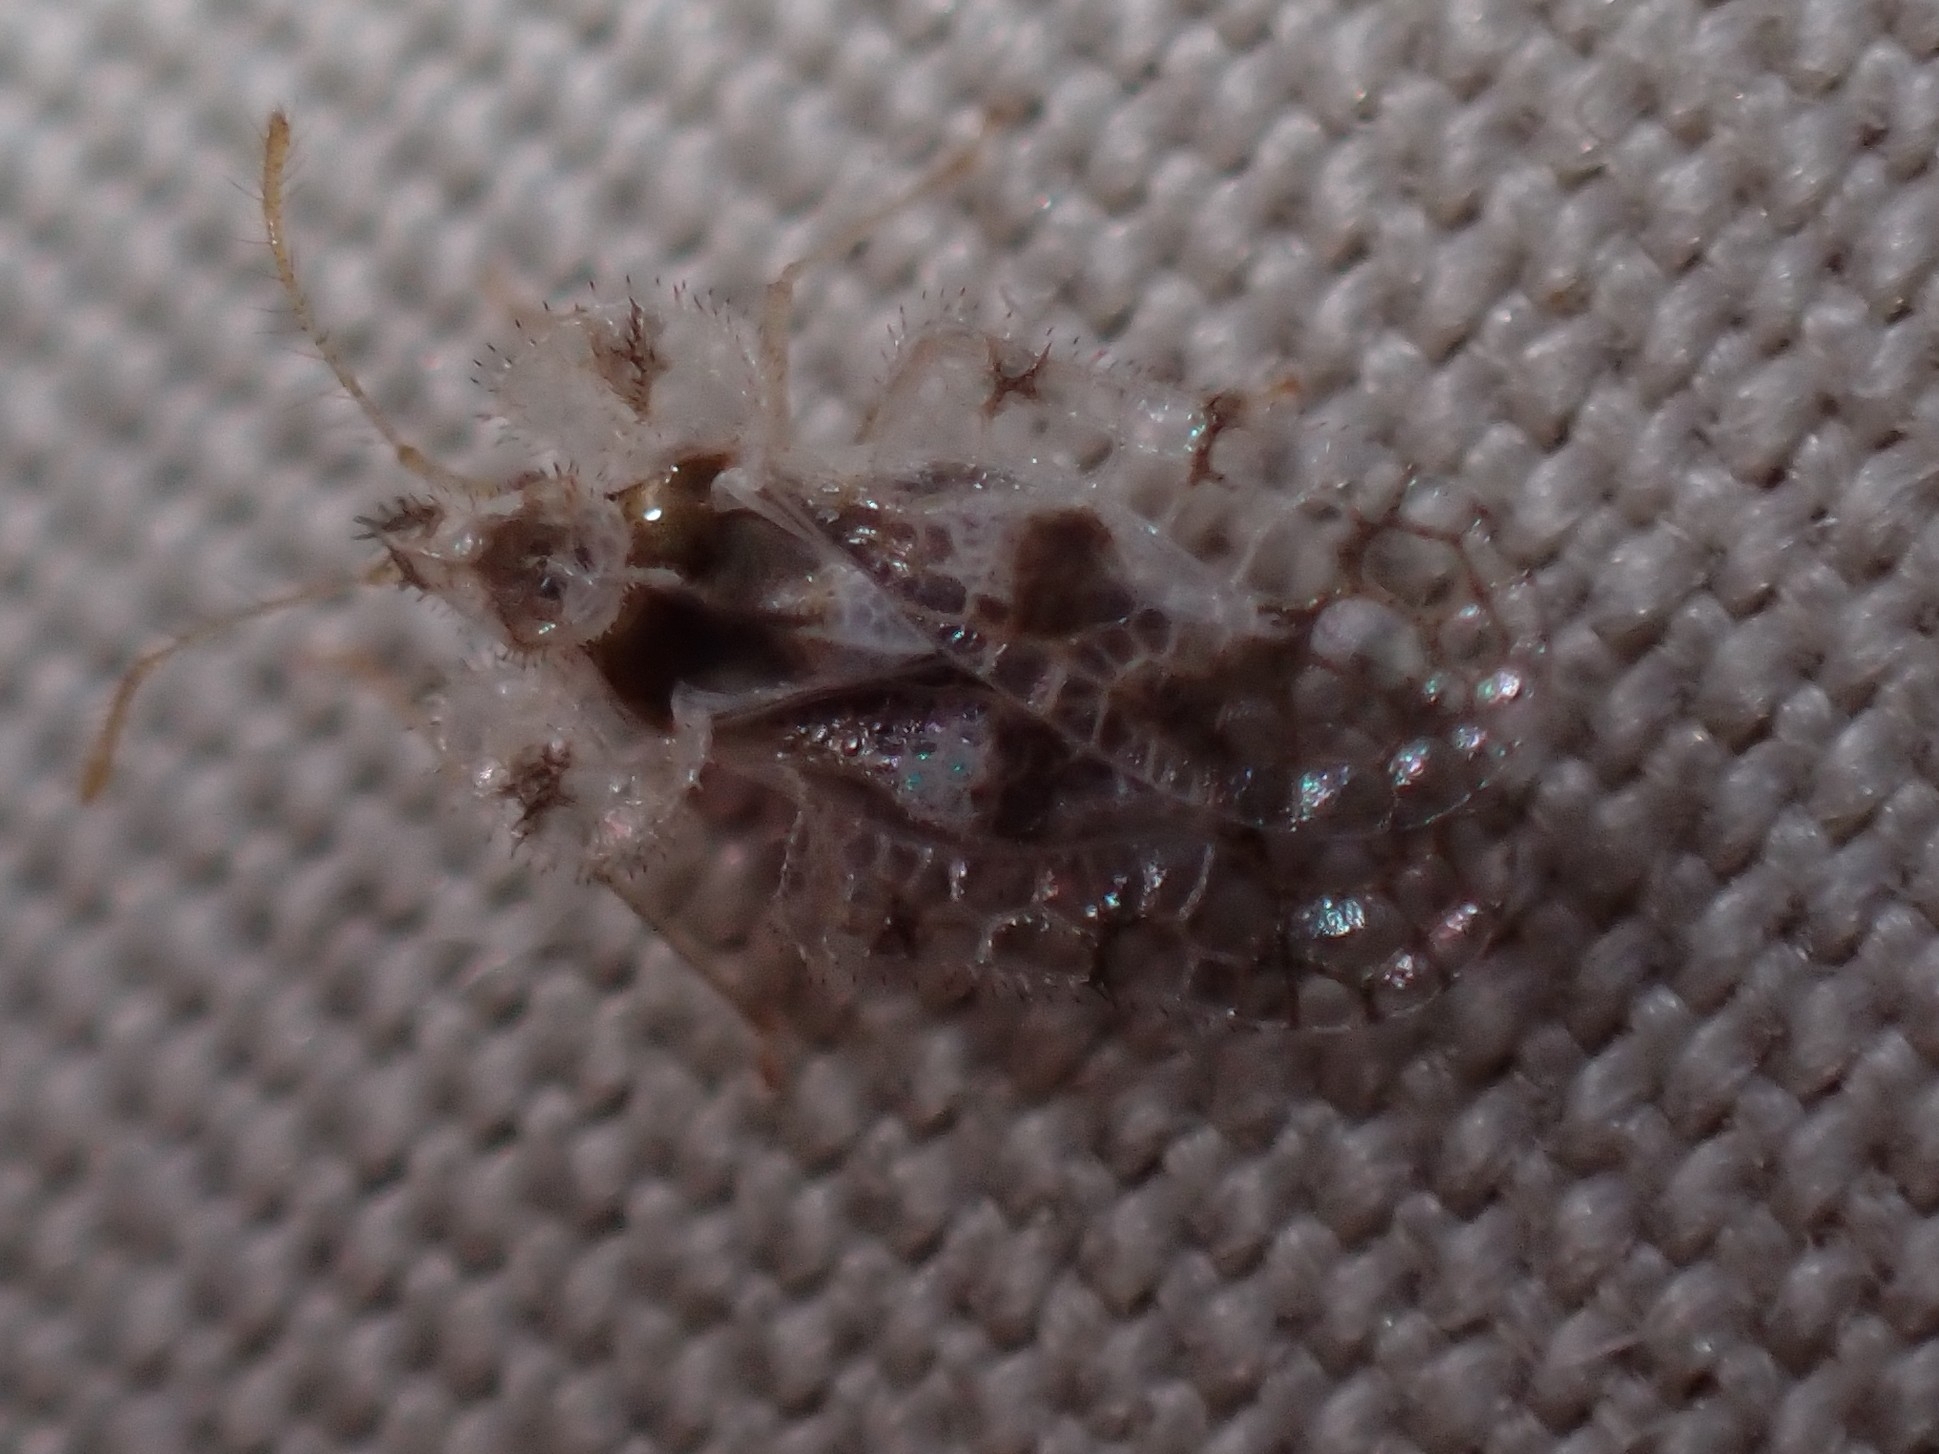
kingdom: Animalia
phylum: Arthropoda
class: Insecta
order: Hemiptera
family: Tingidae
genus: Corythucha
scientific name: Corythucha gossypii
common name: Cotton lace bug
